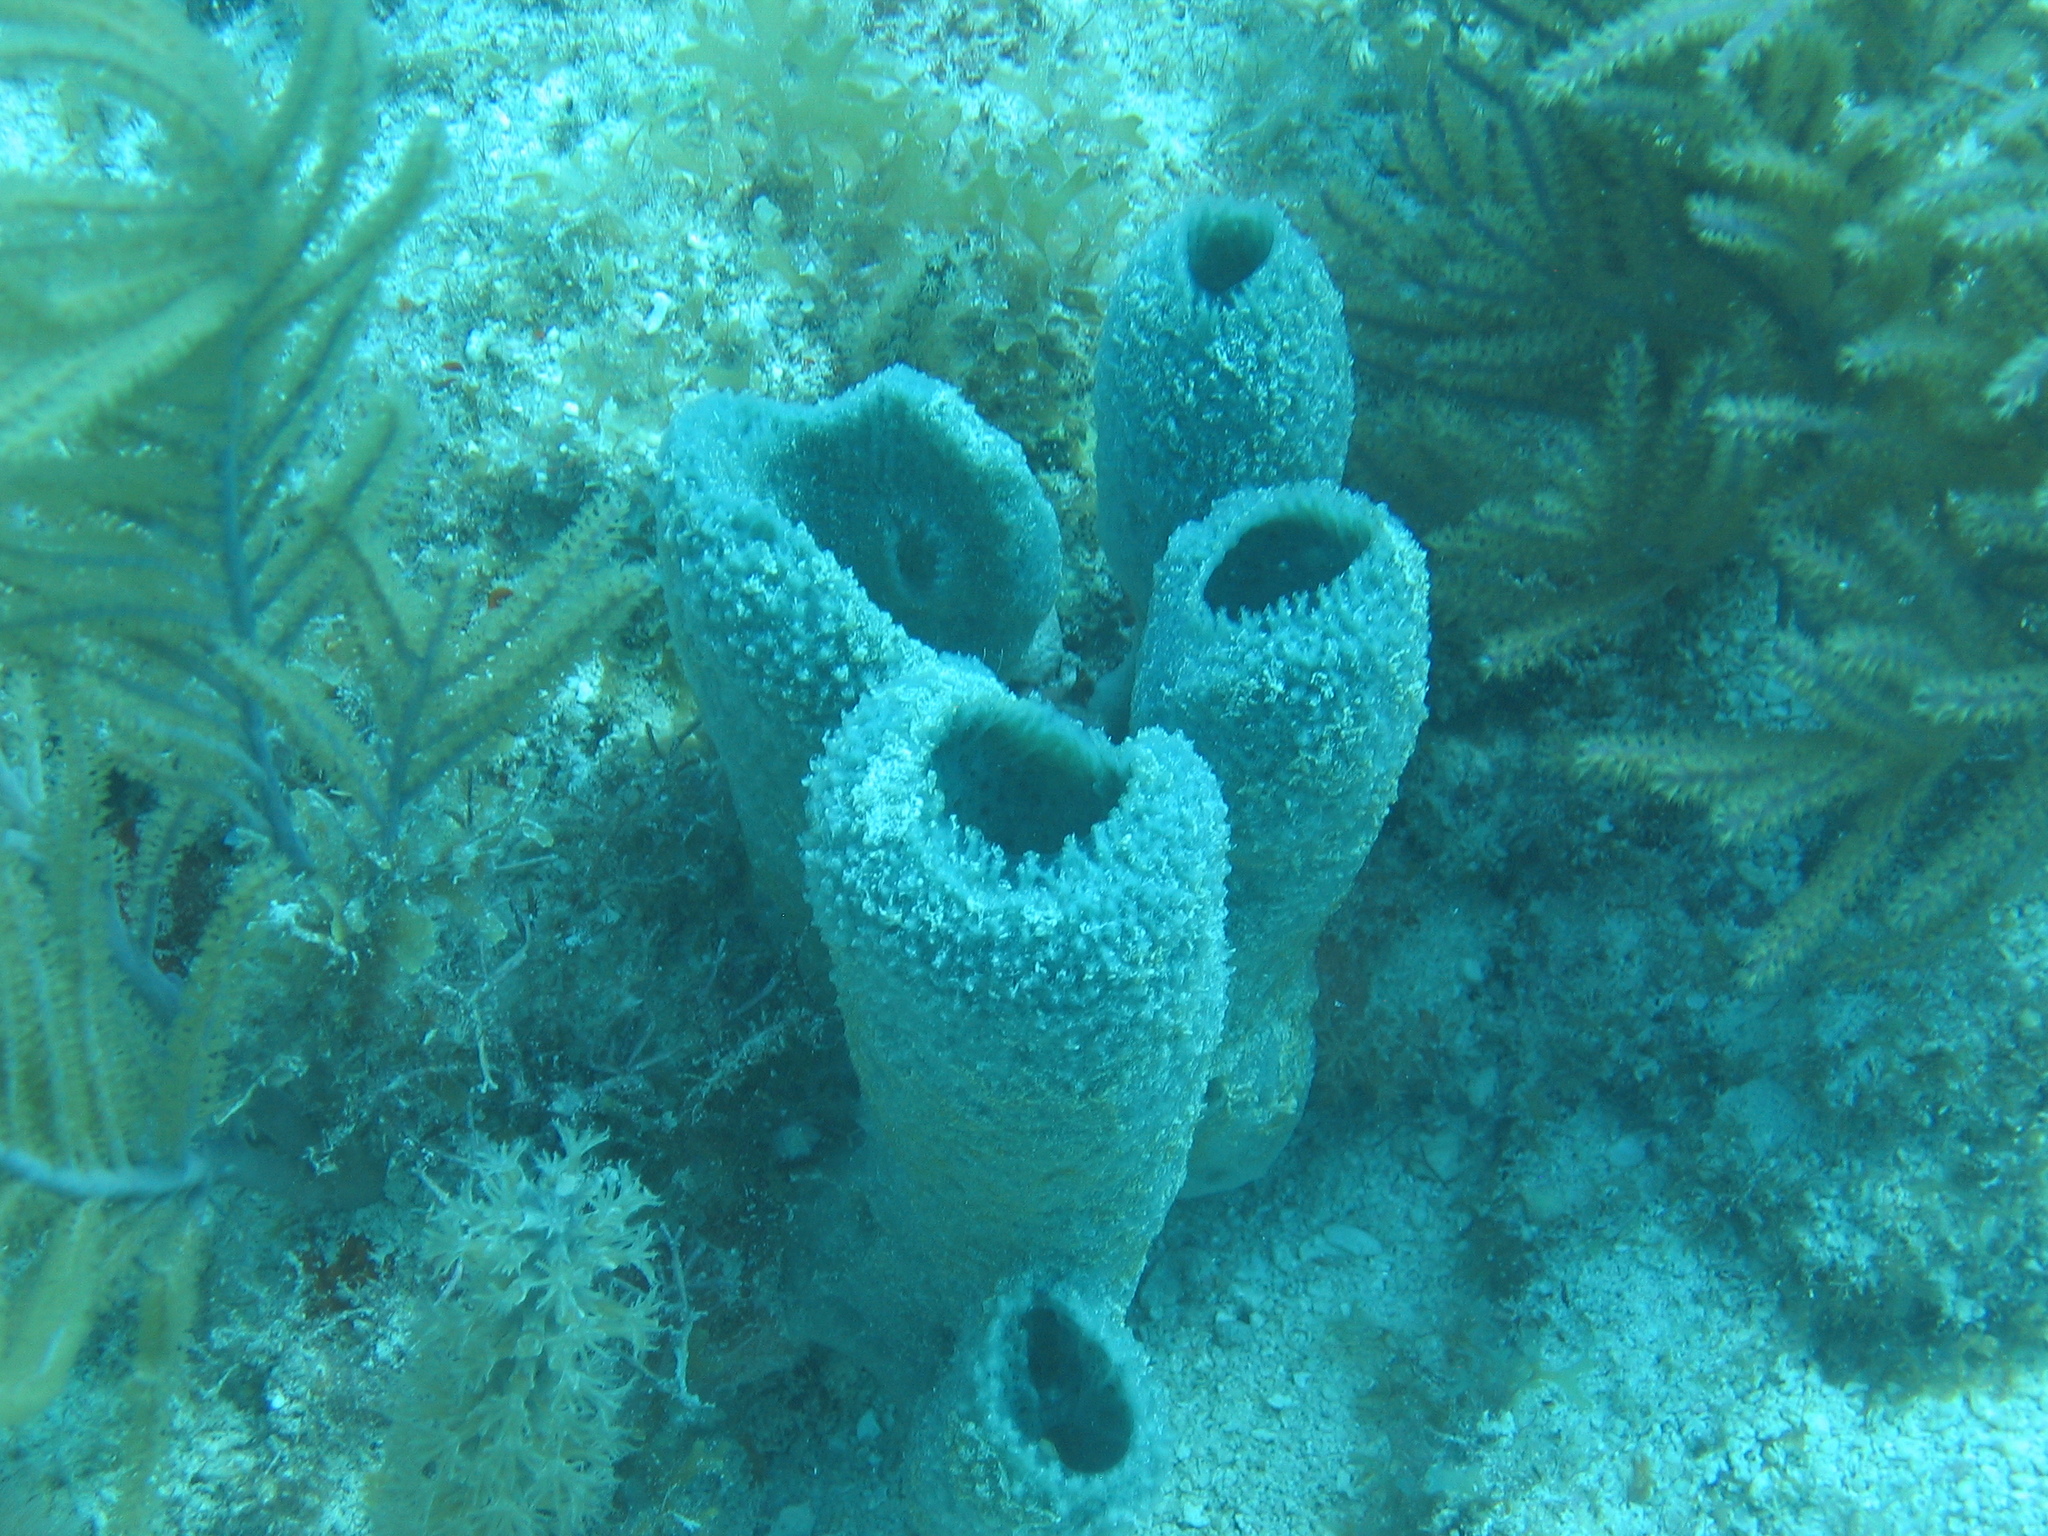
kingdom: Animalia
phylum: Porifera
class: Demospongiae
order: Haplosclerida
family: Niphatidae
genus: Niphates
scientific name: Niphates digitalis
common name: Pink vase sponge
